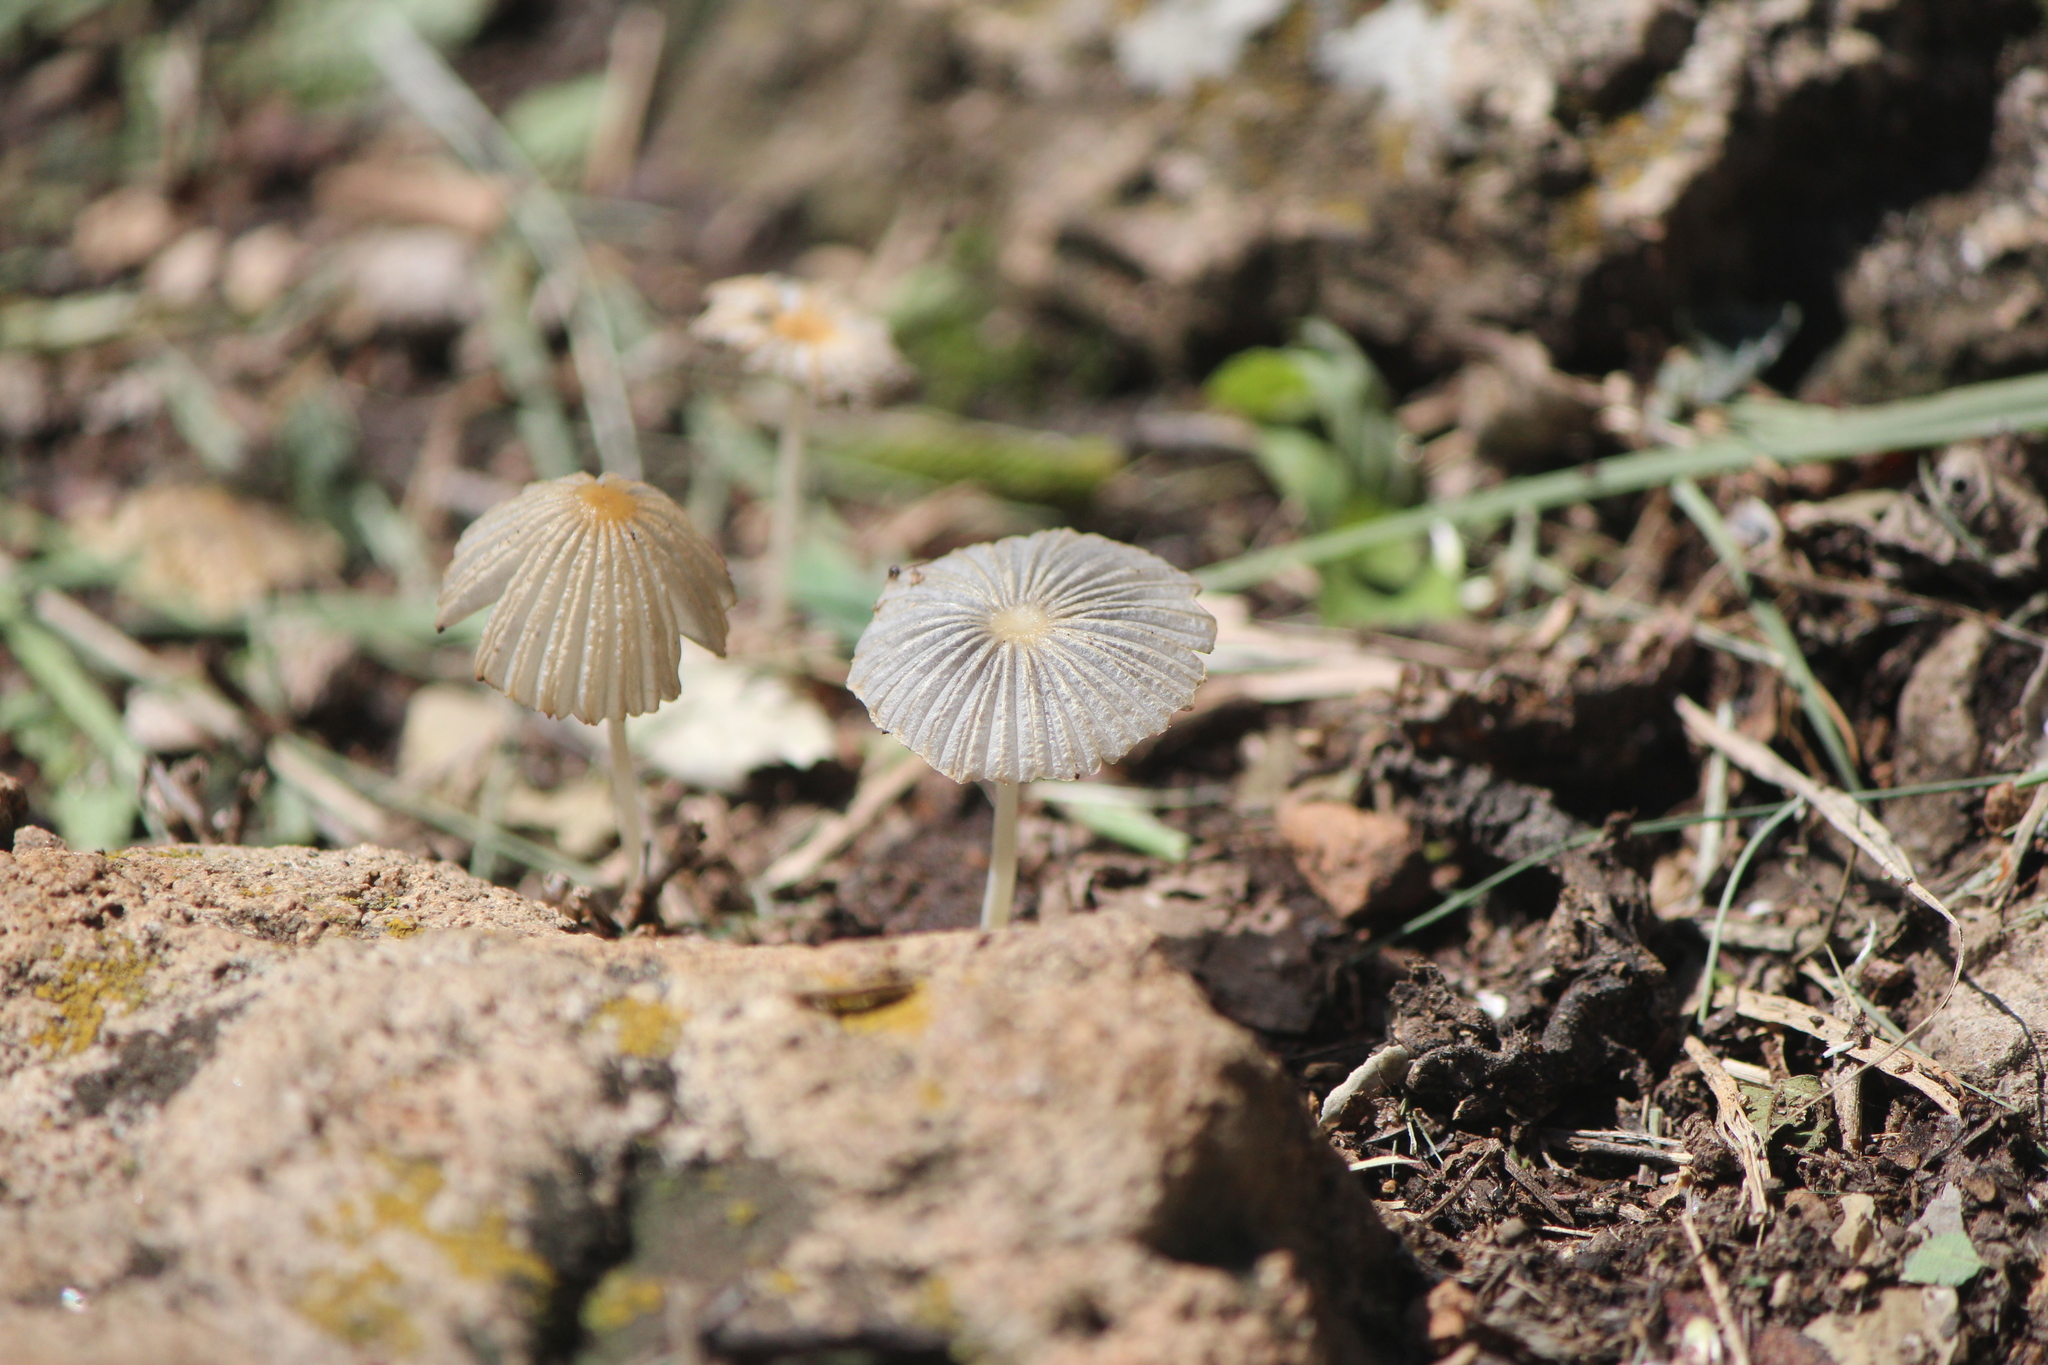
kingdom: Fungi
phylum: Basidiomycota
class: Agaricomycetes
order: Agaricales
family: Psathyrellaceae
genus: Parasola
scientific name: Parasola plicatilis
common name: Pleated inkcap
